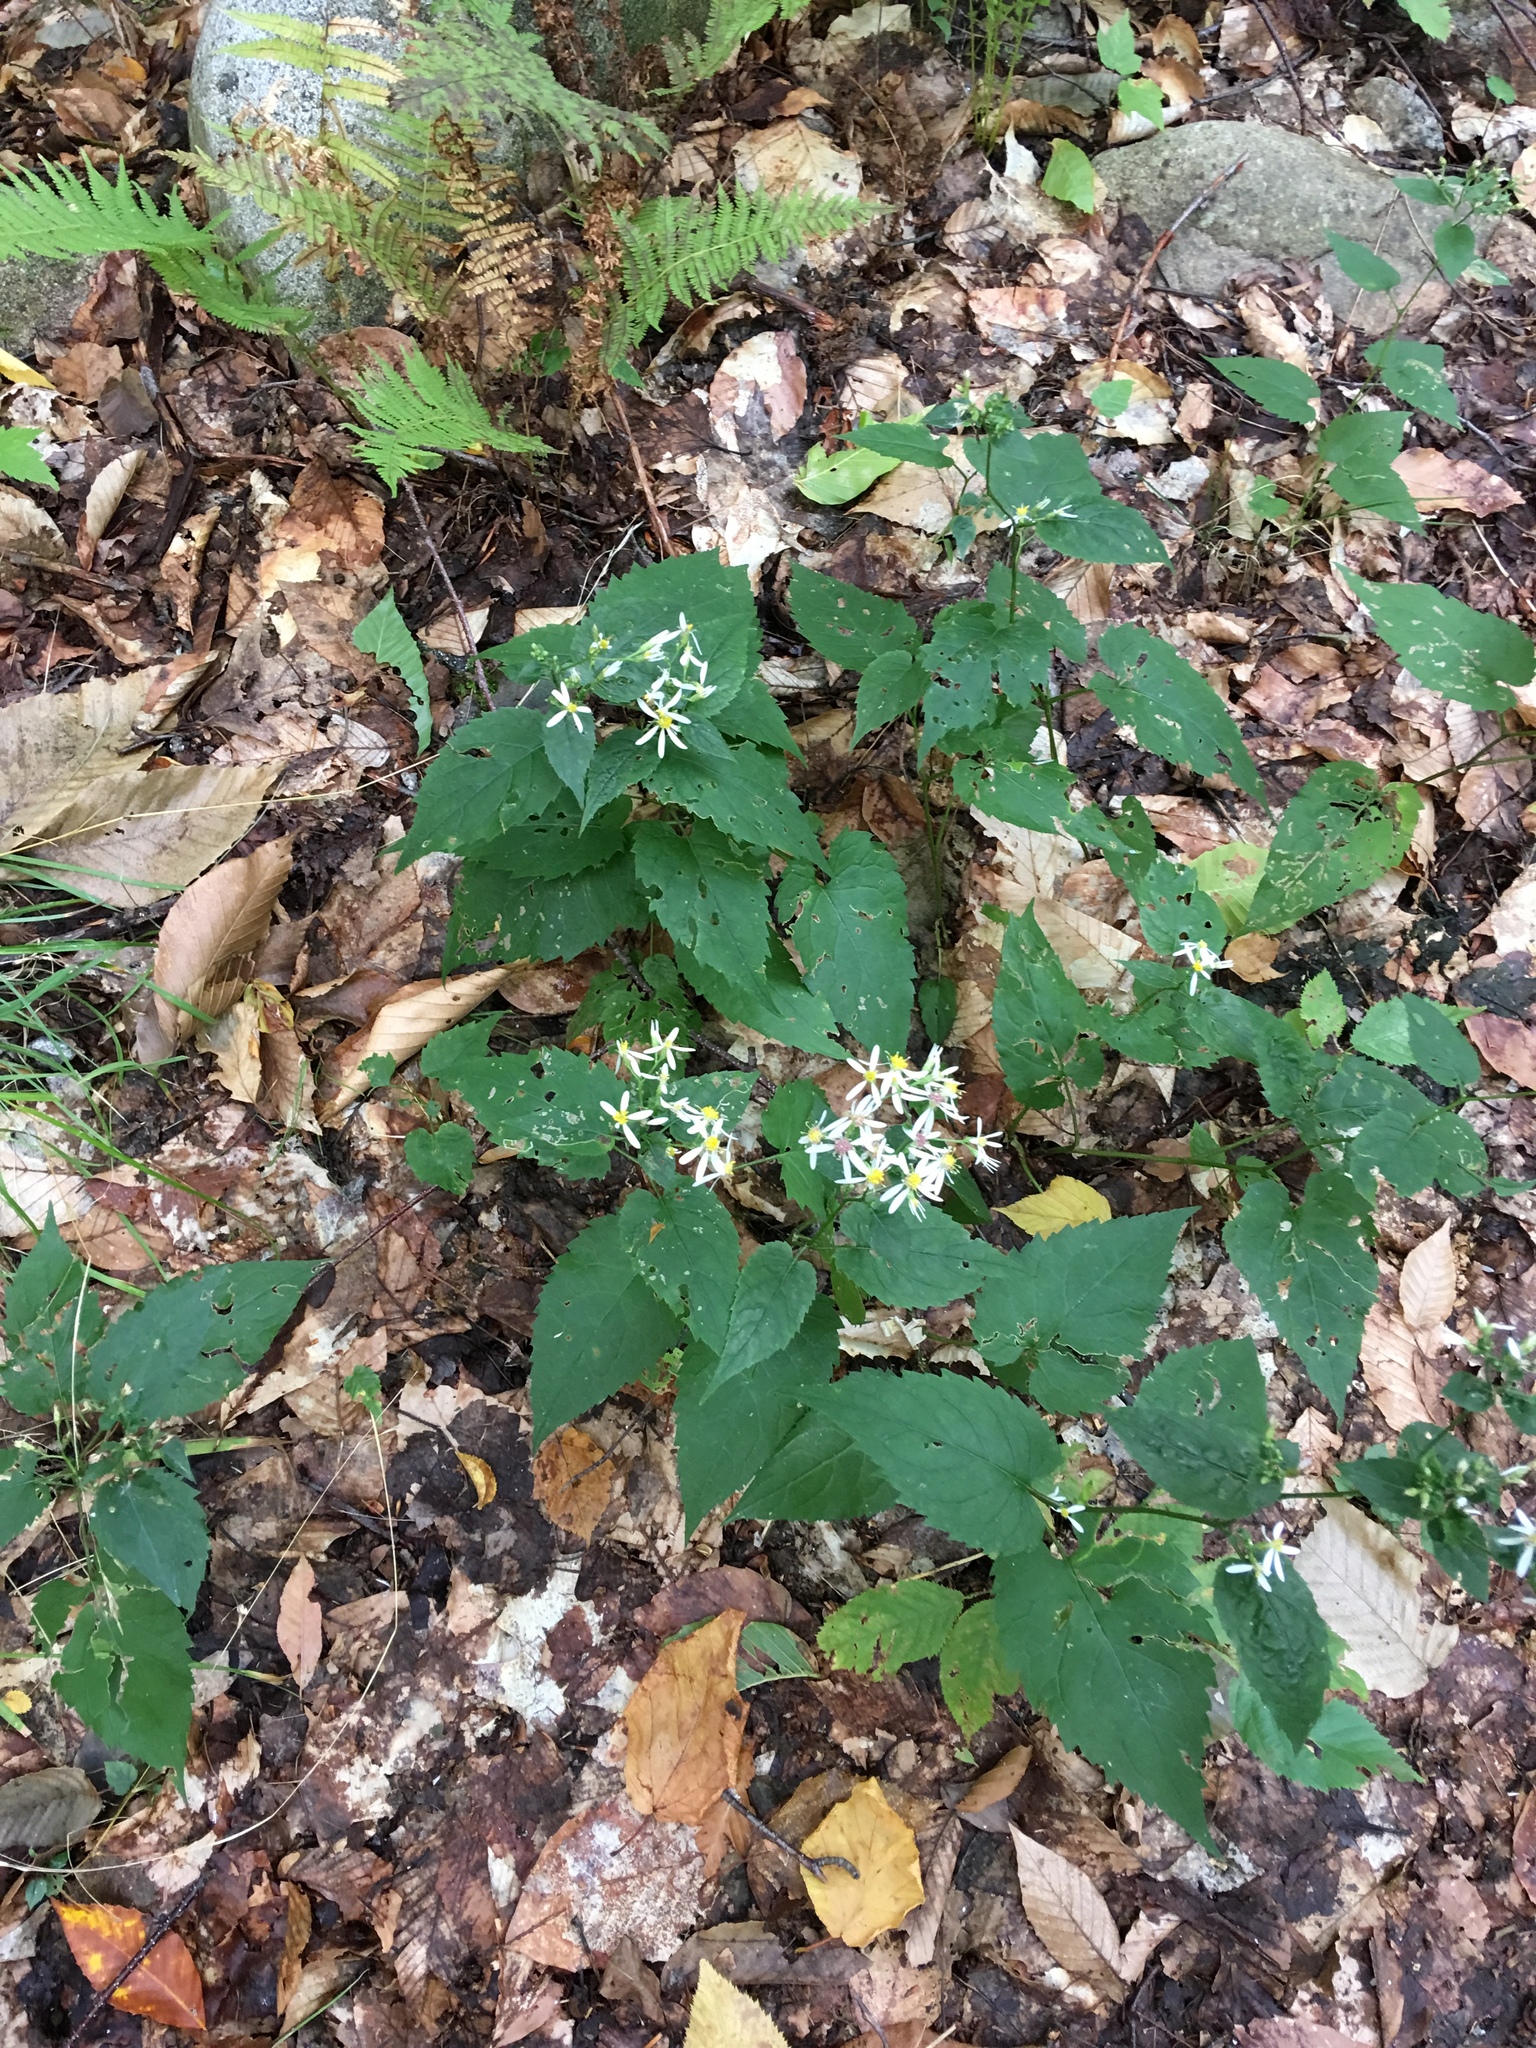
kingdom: Plantae
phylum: Tracheophyta
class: Magnoliopsida
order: Asterales
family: Asteraceae
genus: Eurybia
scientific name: Eurybia divaricata
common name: White wood aster
